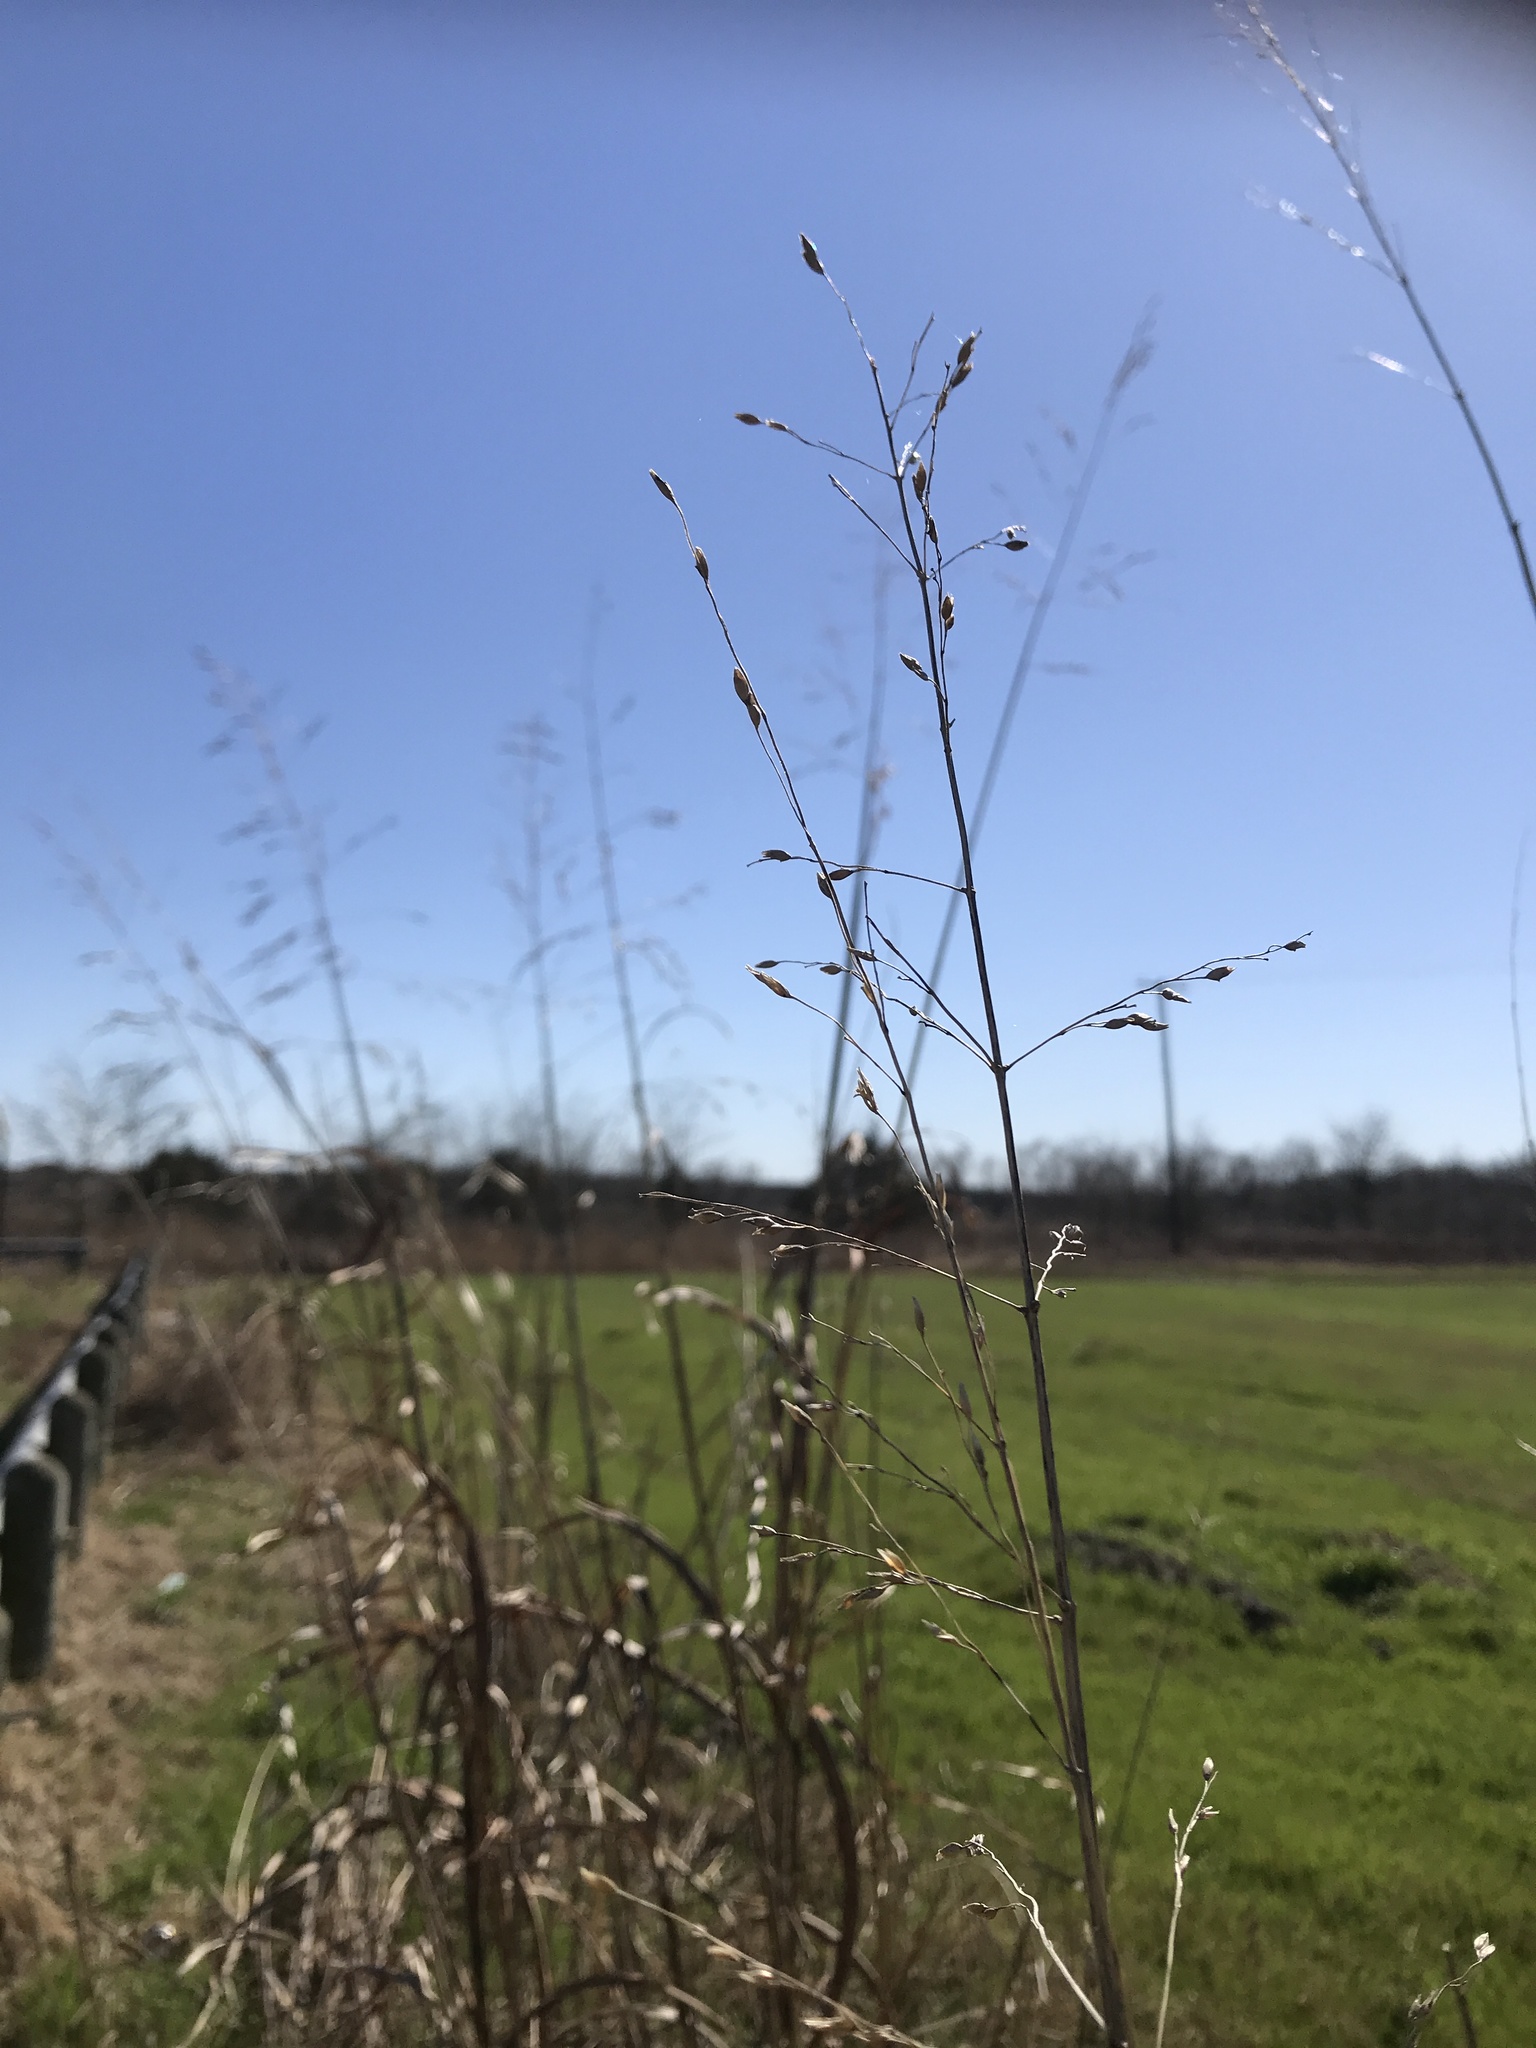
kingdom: Plantae
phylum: Tracheophyta
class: Liliopsida
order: Poales
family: Poaceae
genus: Sorghum
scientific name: Sorghum halepense
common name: Johnson-grass
